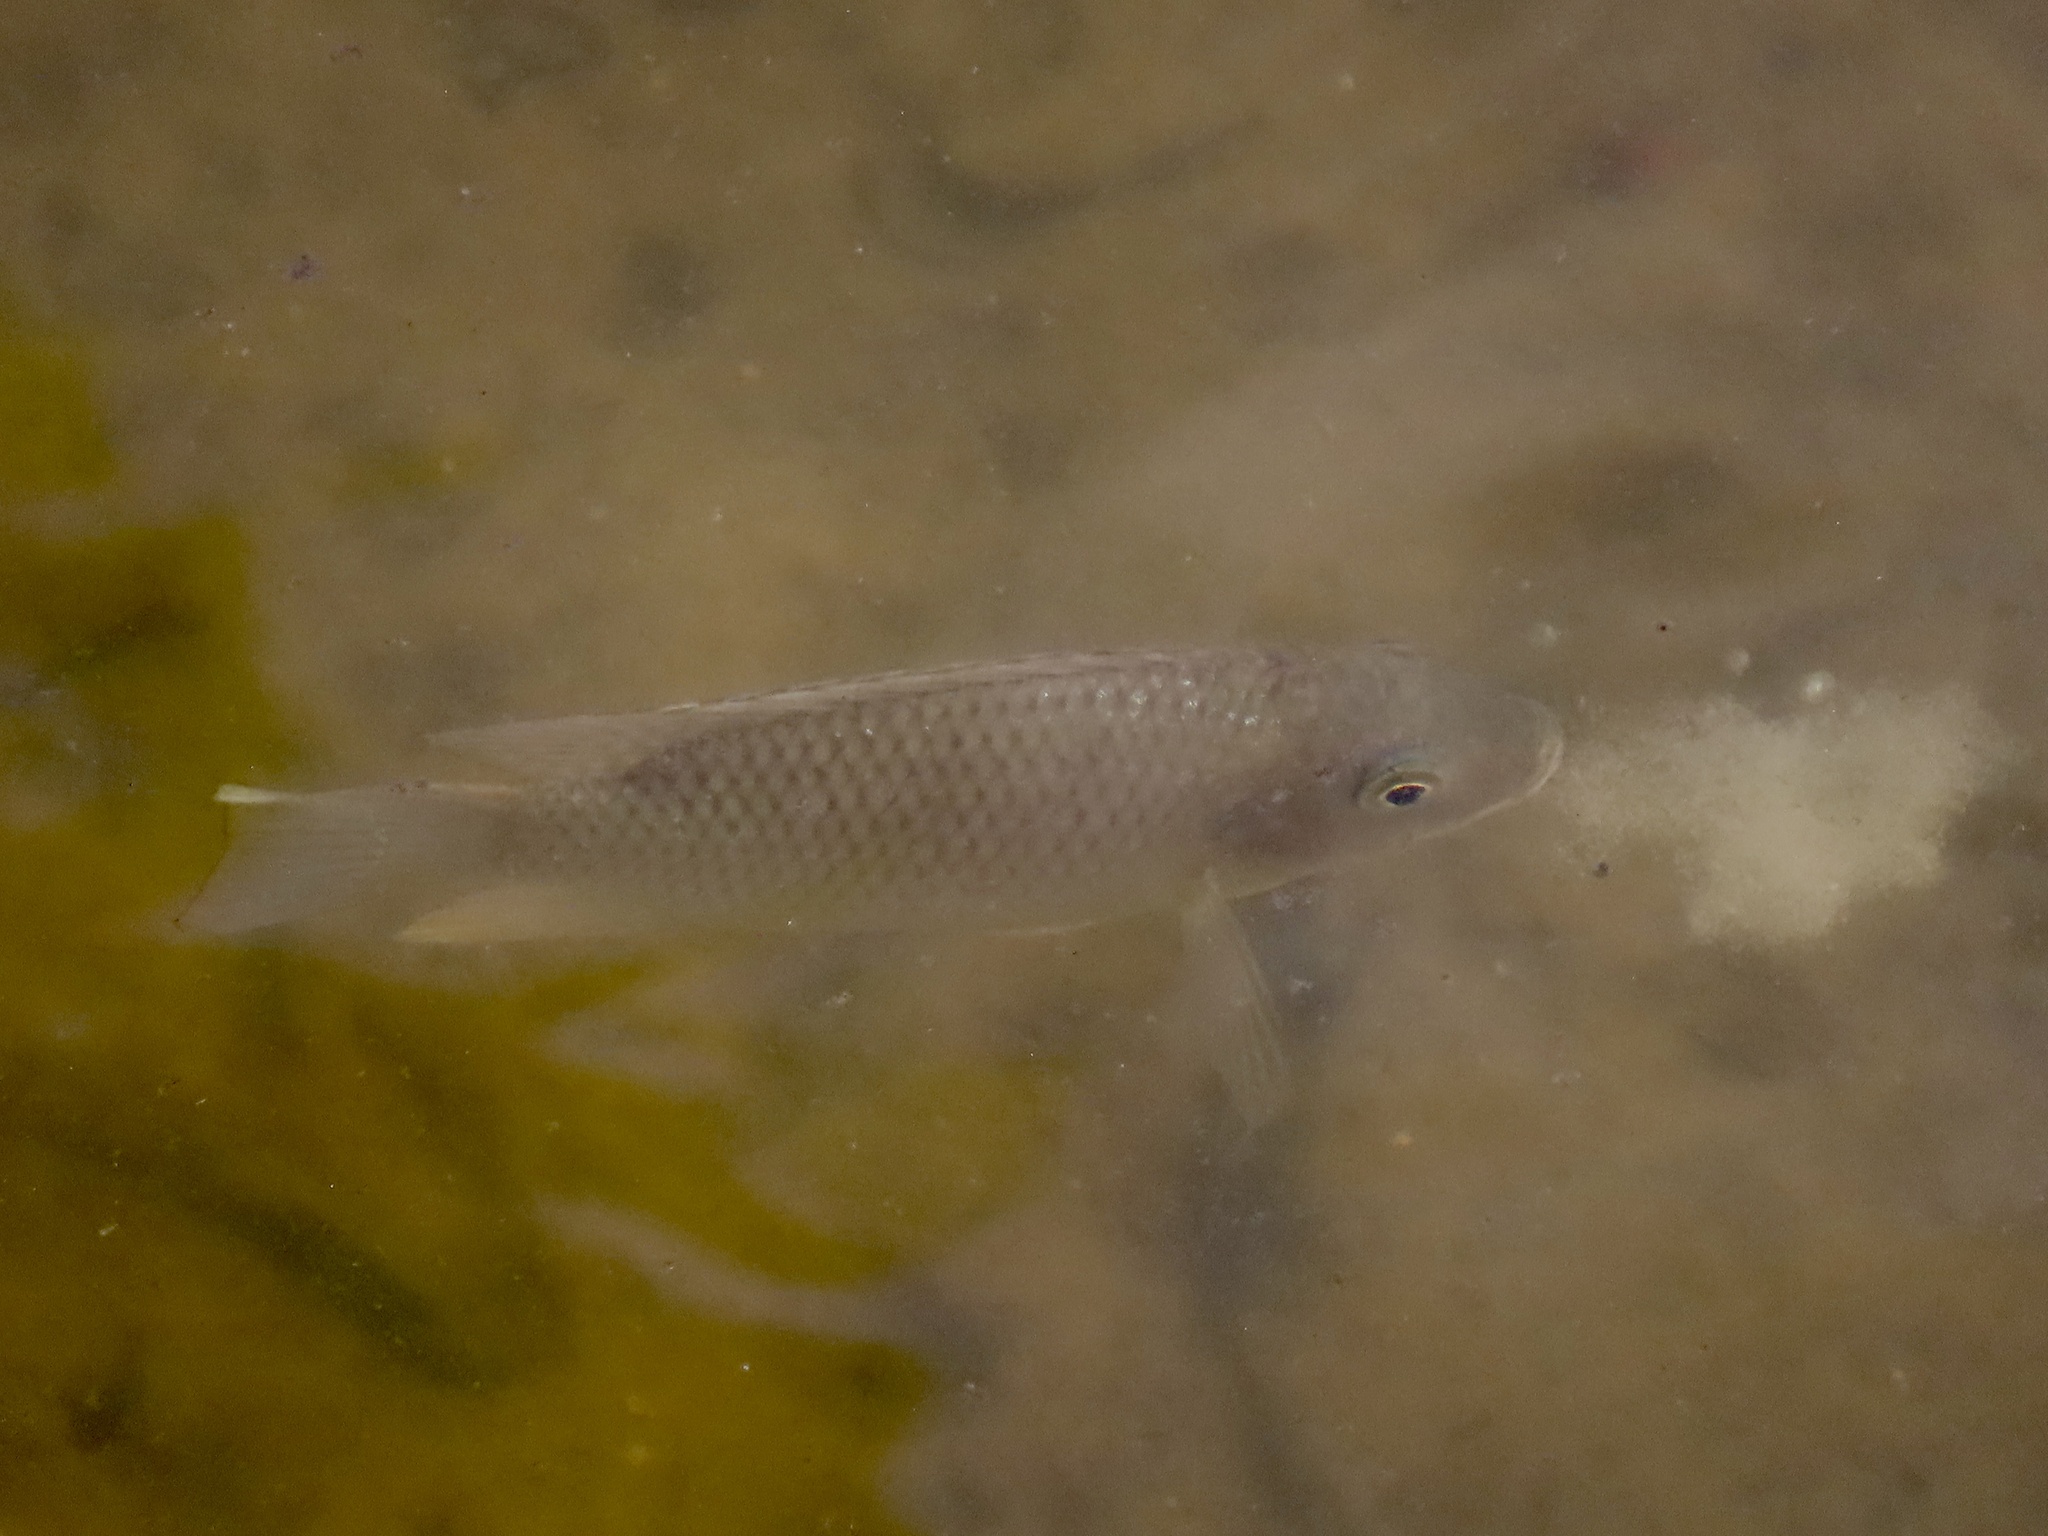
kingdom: Animalia
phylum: Chordata
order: Perciformes
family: Cichlidae
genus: Sarotherodon
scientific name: Sarotherodon melanotheron
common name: Blackchin tilapia
